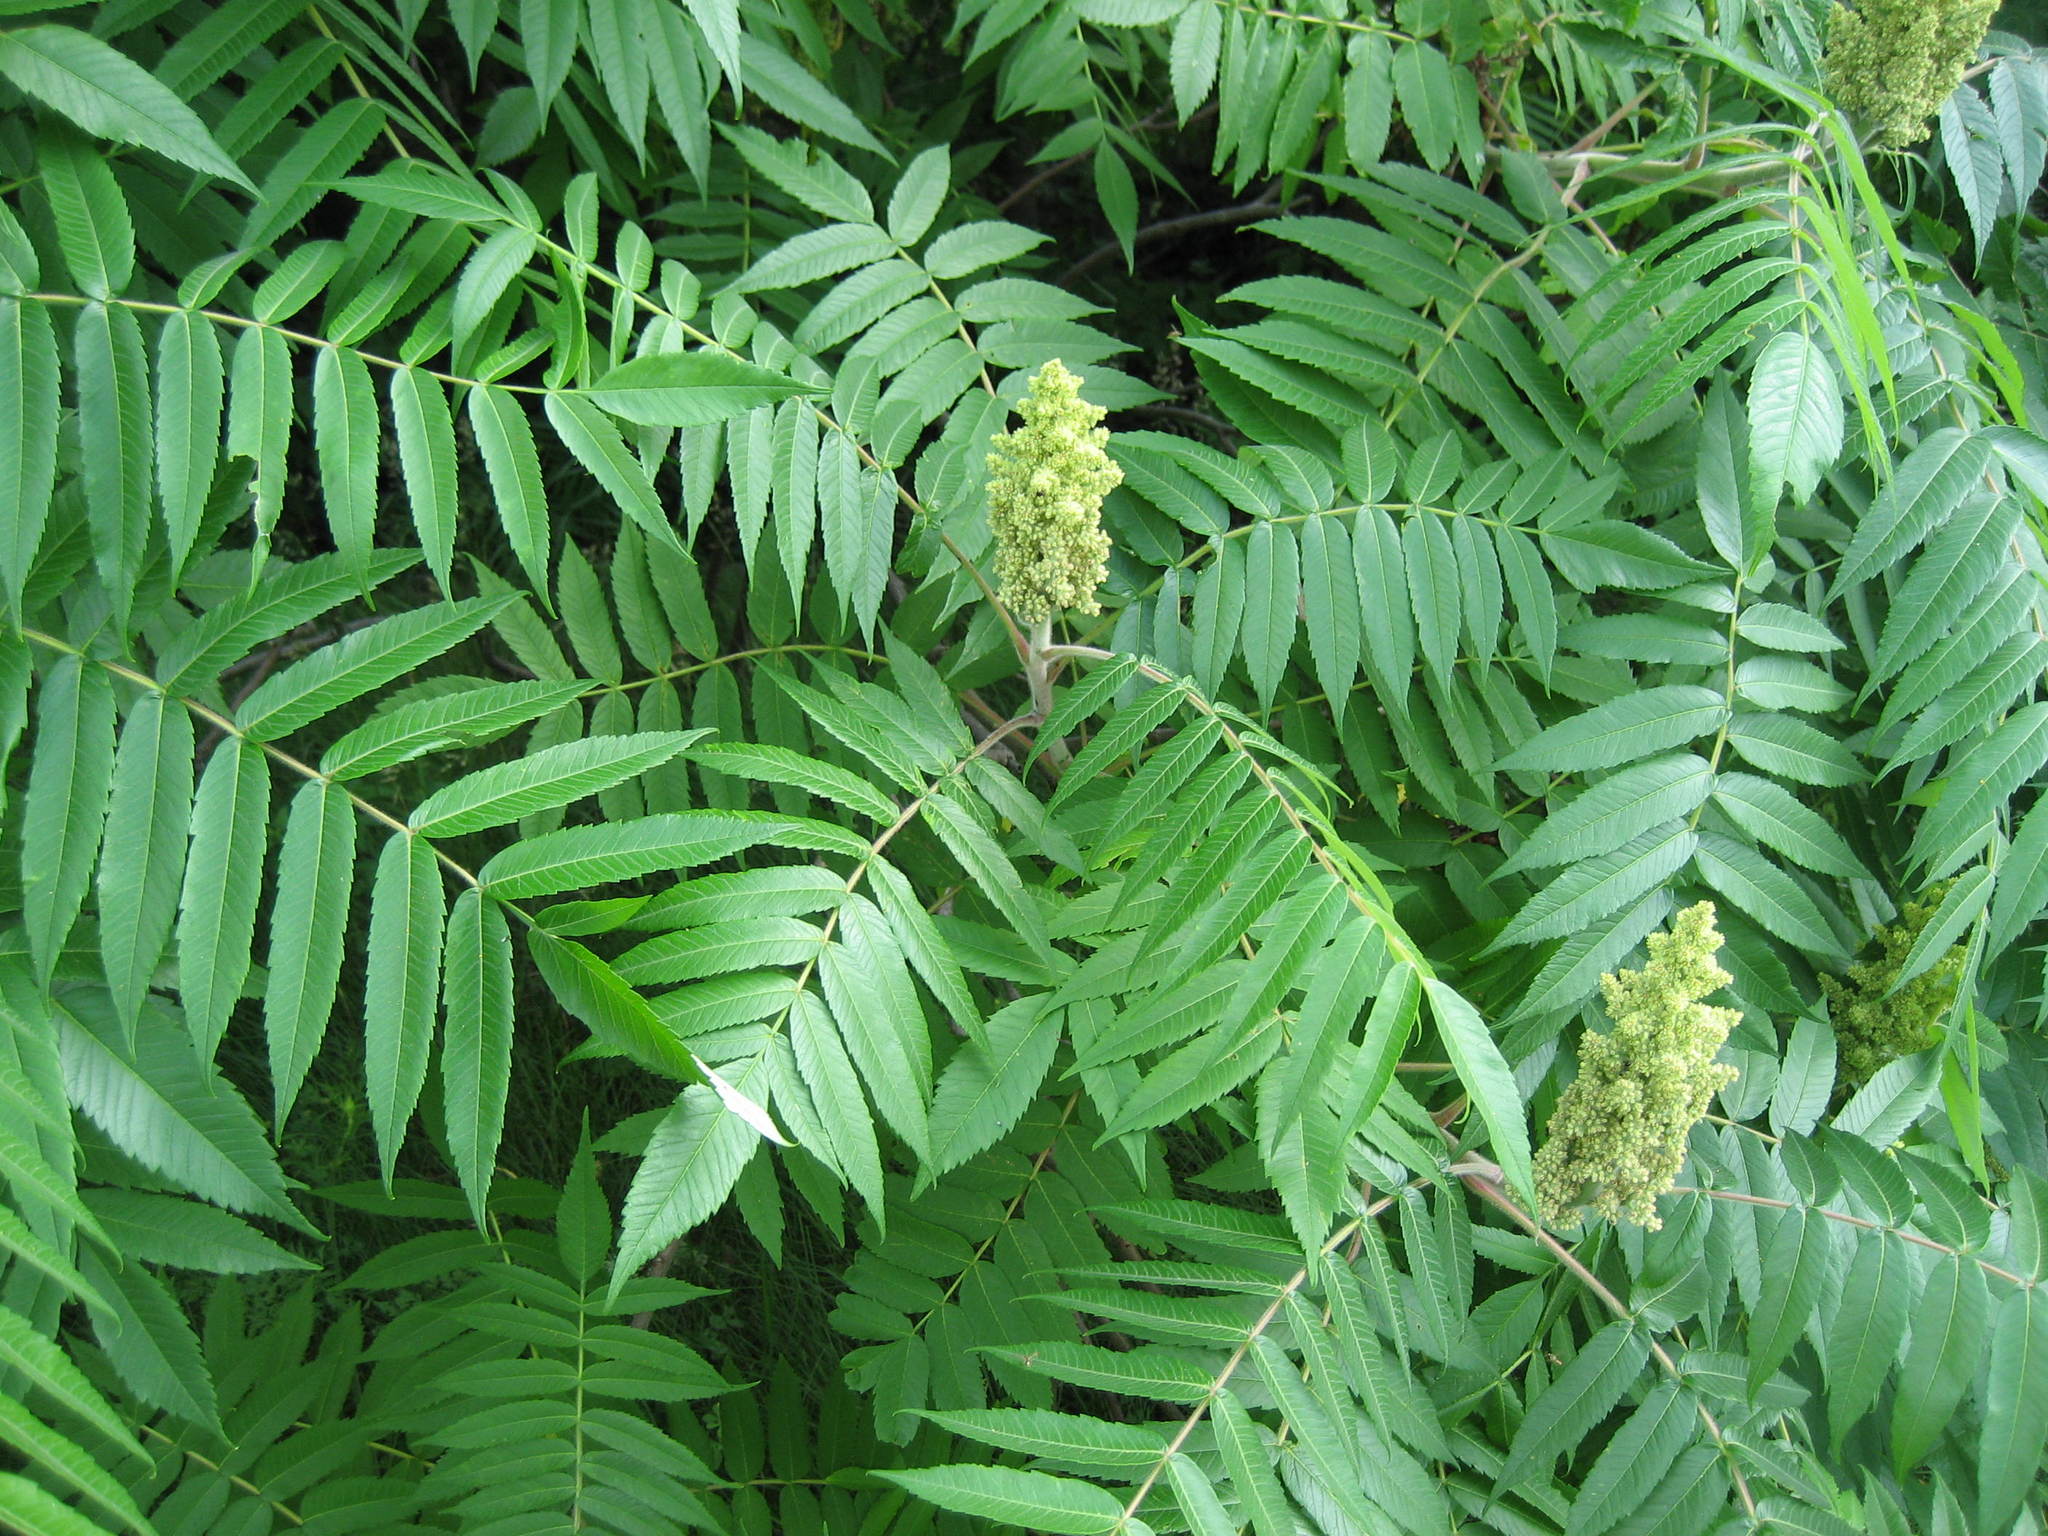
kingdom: Plantae
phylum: Tracheophyta
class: Magnoliopsida
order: Sapindales
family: Anacardiaceae
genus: Rhus
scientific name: Rhus typhina
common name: Staghorn sumac
